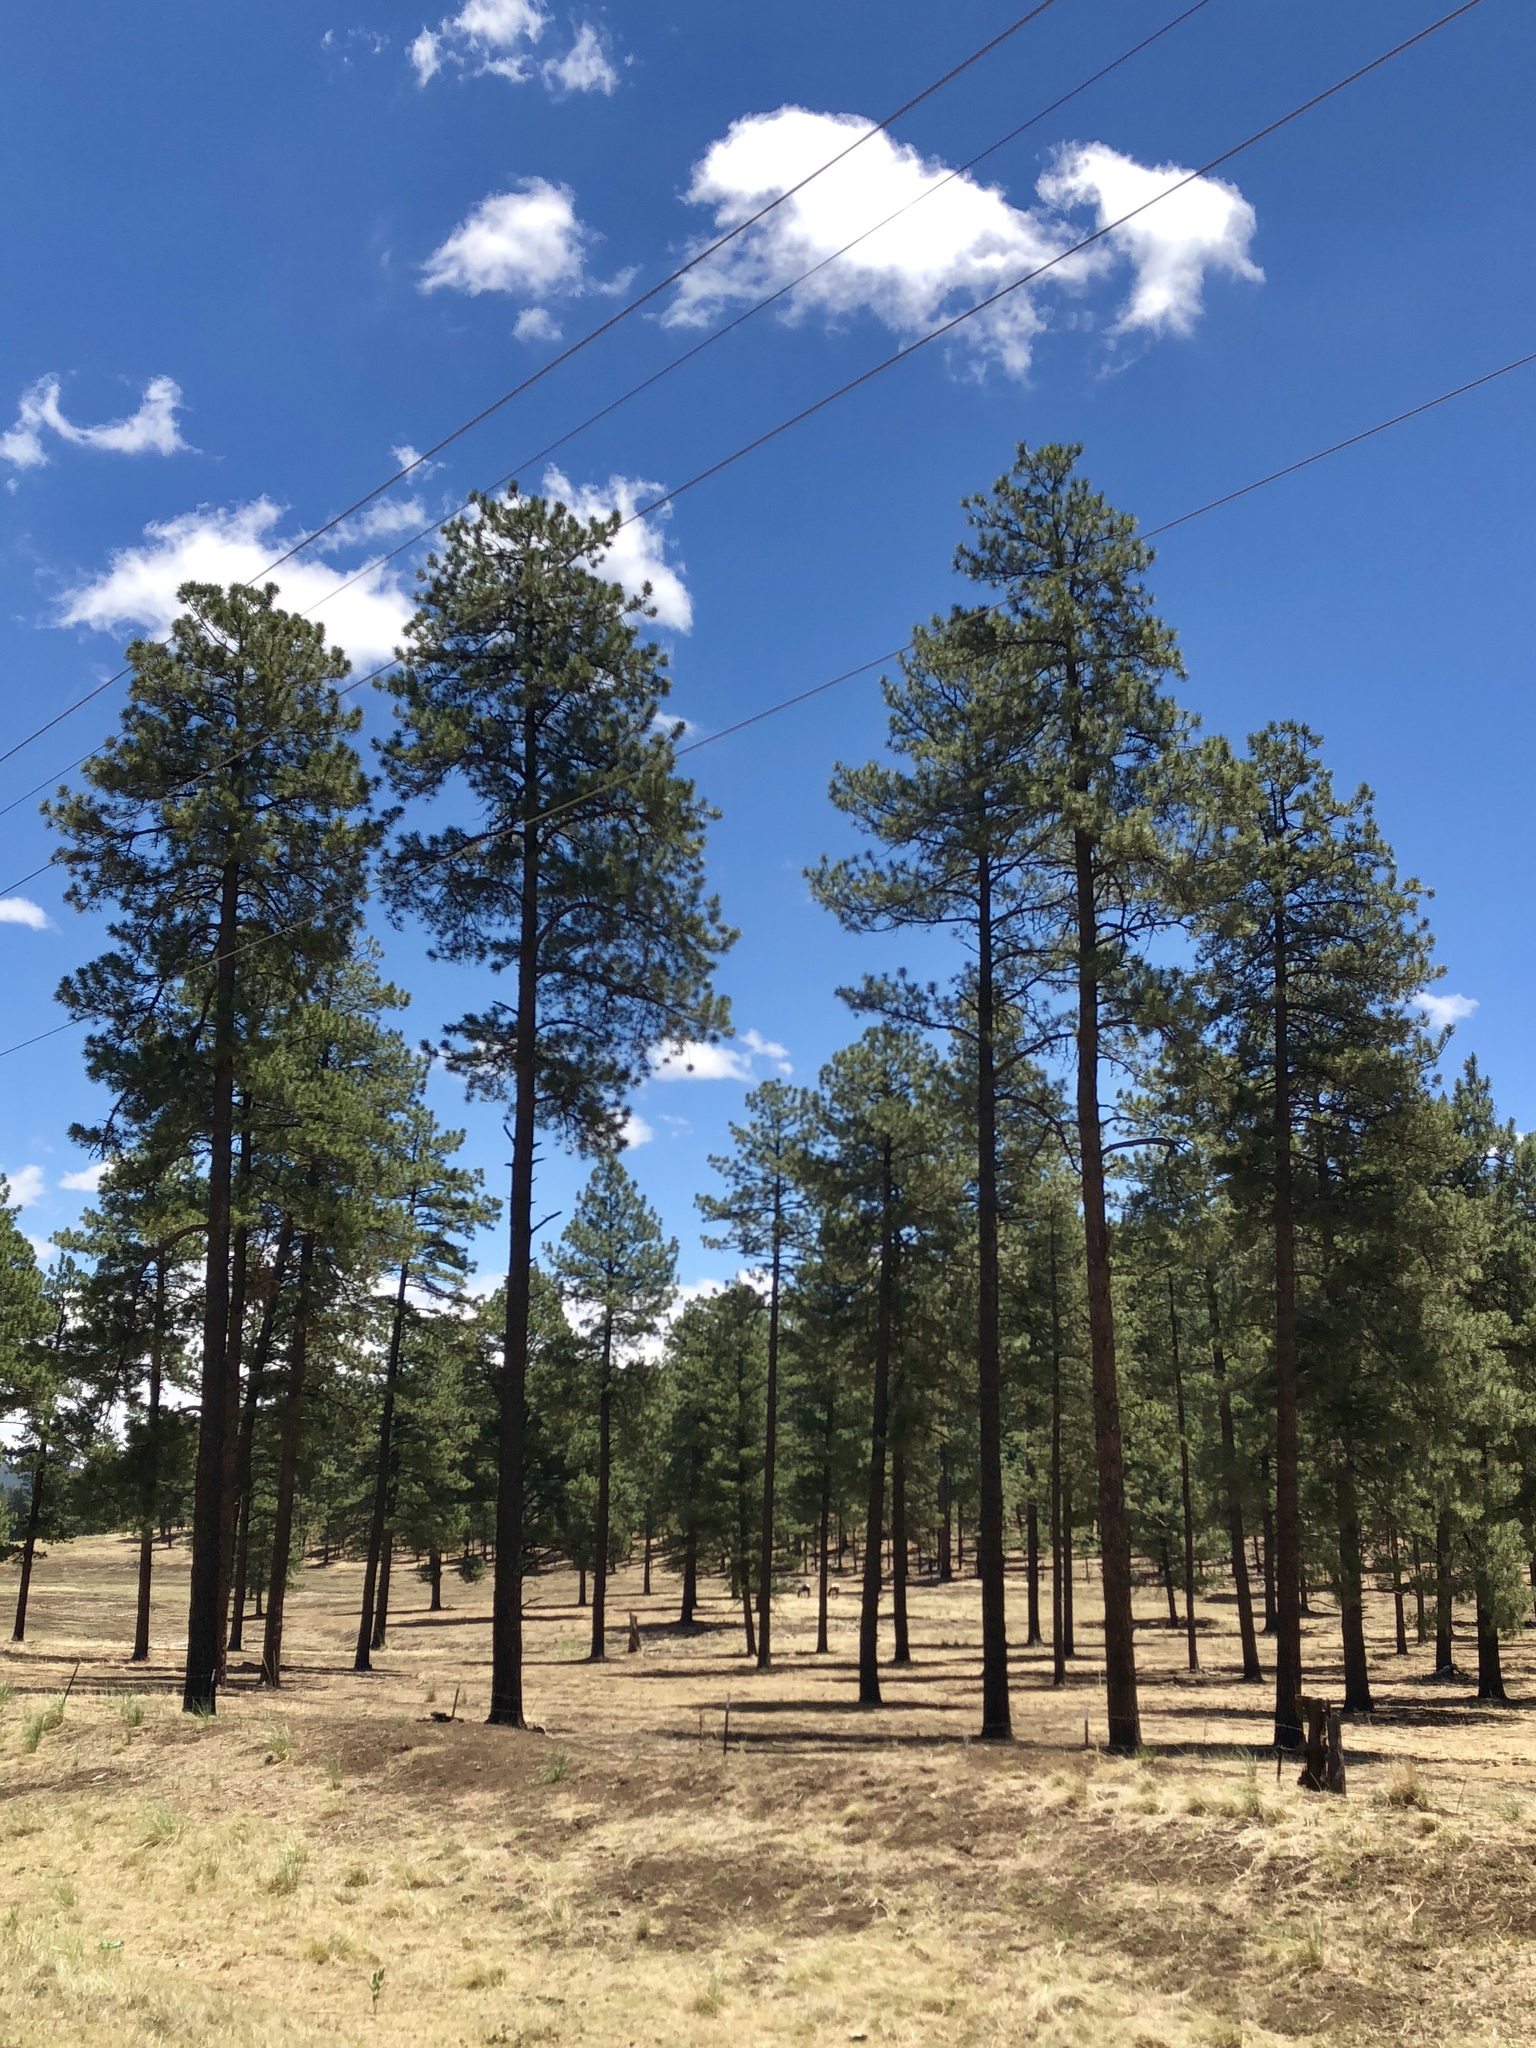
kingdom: Plantae
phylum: Tracheophyta
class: Pinopsida
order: Pinales
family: Pinaceae
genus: Pinus
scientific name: Pinus ponderosa
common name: Western yellow-pine
